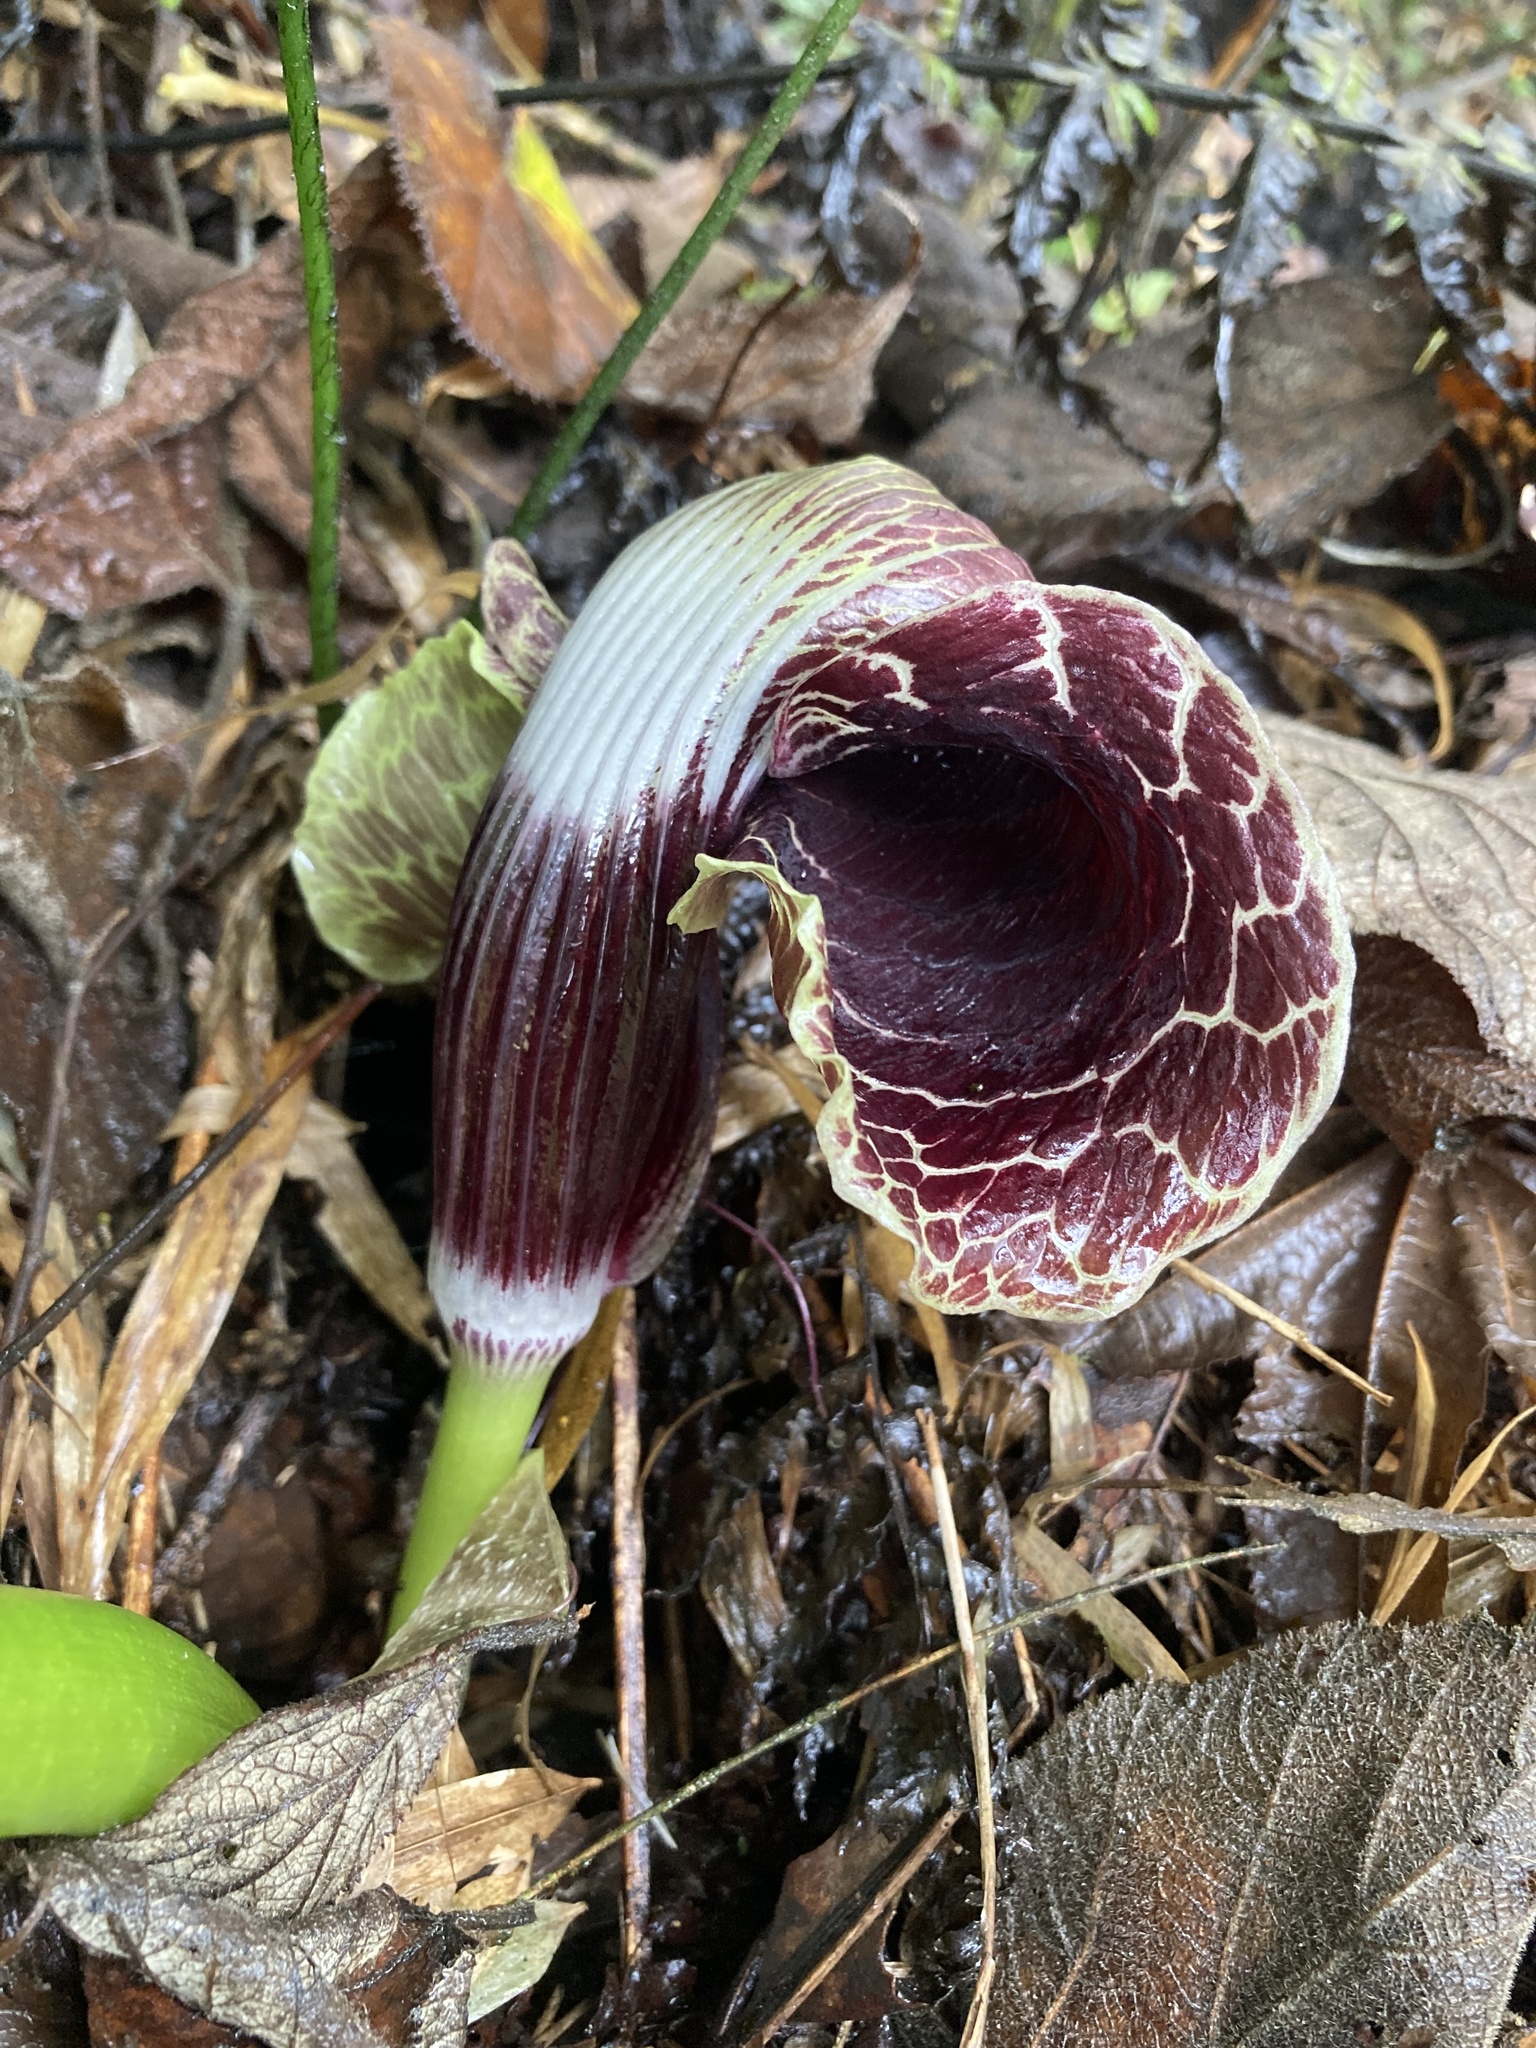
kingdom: Plantae
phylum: Tracheophyta
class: Liliopsida
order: Alismatales
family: Araceae
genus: Arisaema
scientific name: Arisaema griffithii
